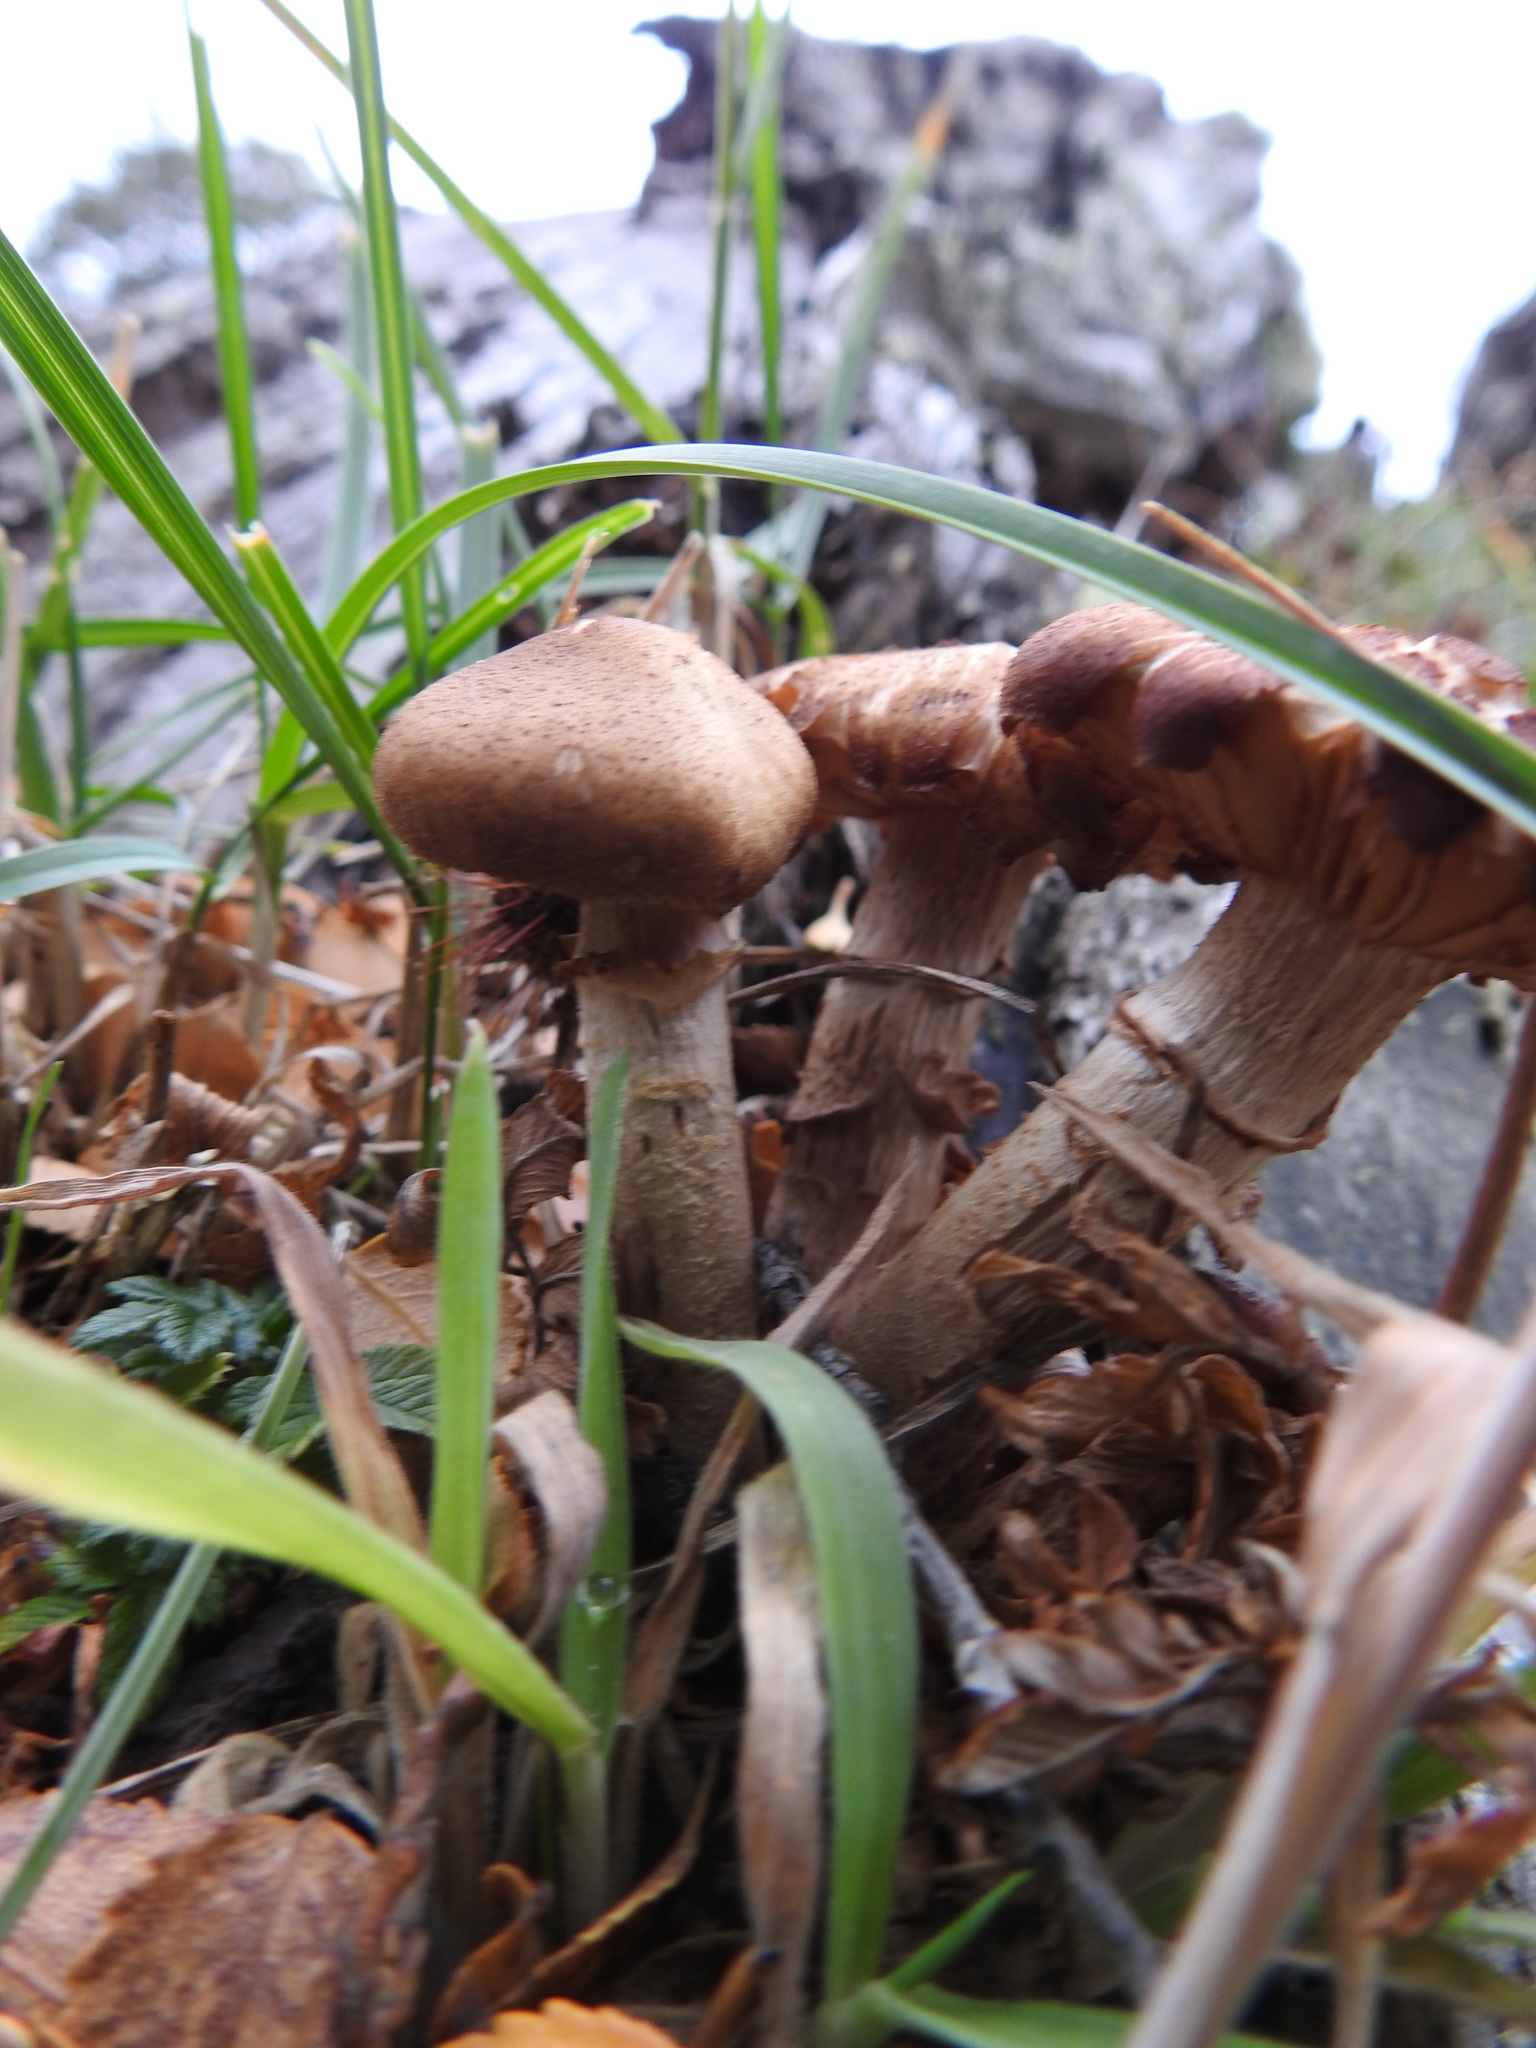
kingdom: Fungi
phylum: Basidiomycota
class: Agaricomycetes
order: Agaricales
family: Physalacriaceae
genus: Armillaria
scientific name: Armillaria mellea
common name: Honey fungus
